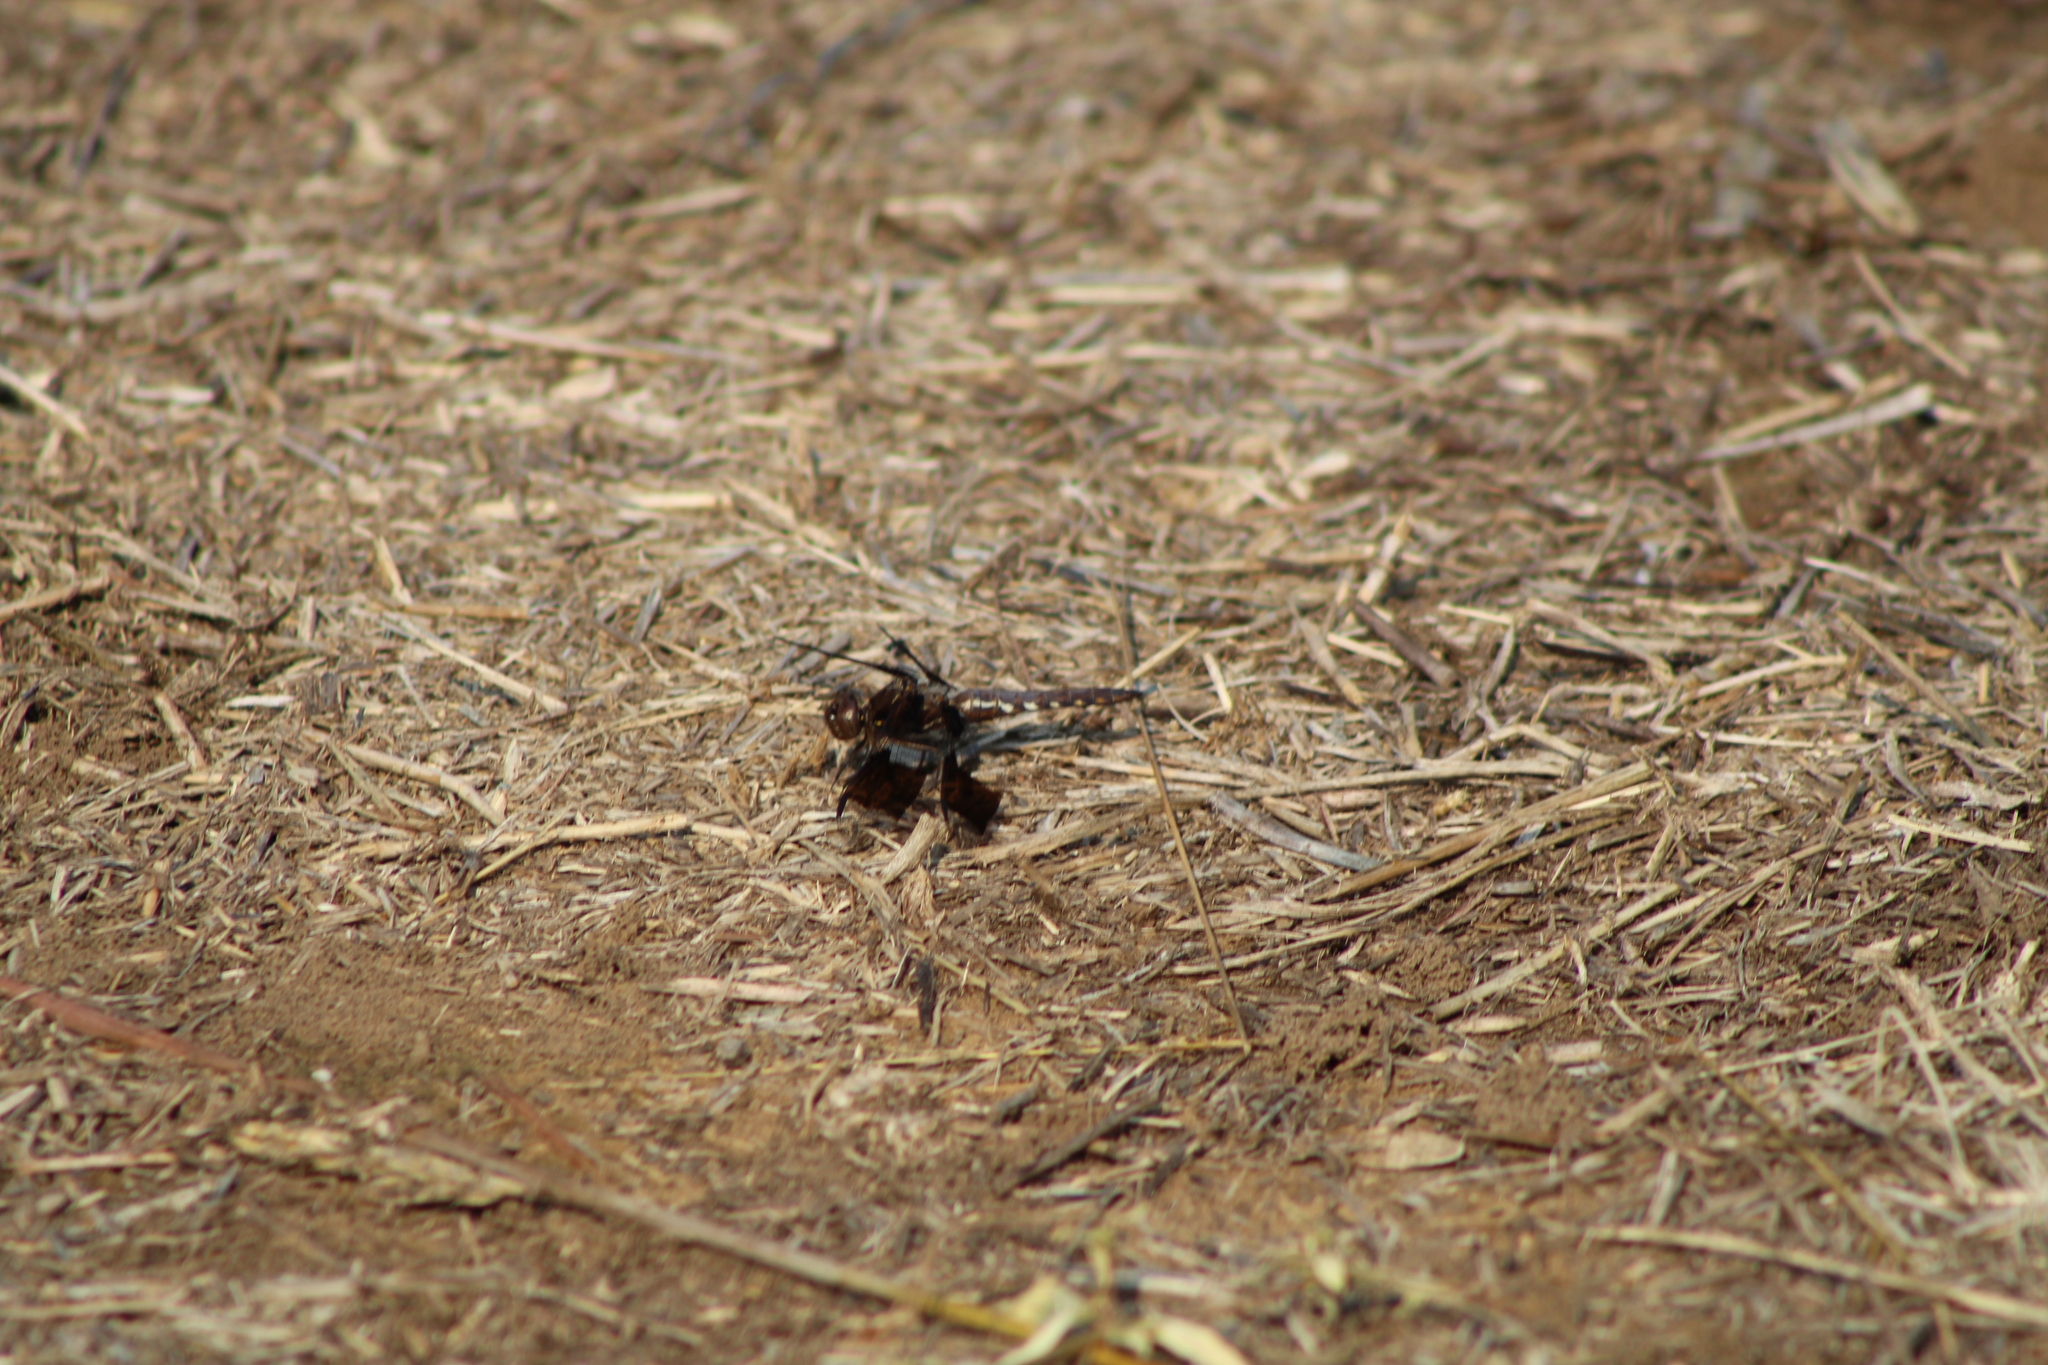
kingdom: Animalia
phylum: Arthropoda
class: Insecta
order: Odonata
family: Libellulidae
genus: Plathemis
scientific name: Plathemis lydia
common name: Common whitetail
